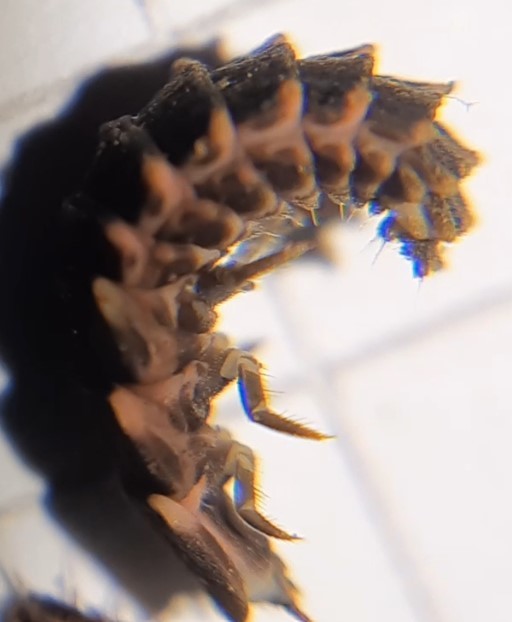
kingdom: Animalia
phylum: Arthropoda
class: Insecta
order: Coleoptera
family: Lampyridae
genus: Lampyris
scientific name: Lampyris noctiluca
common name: Glow-worm
